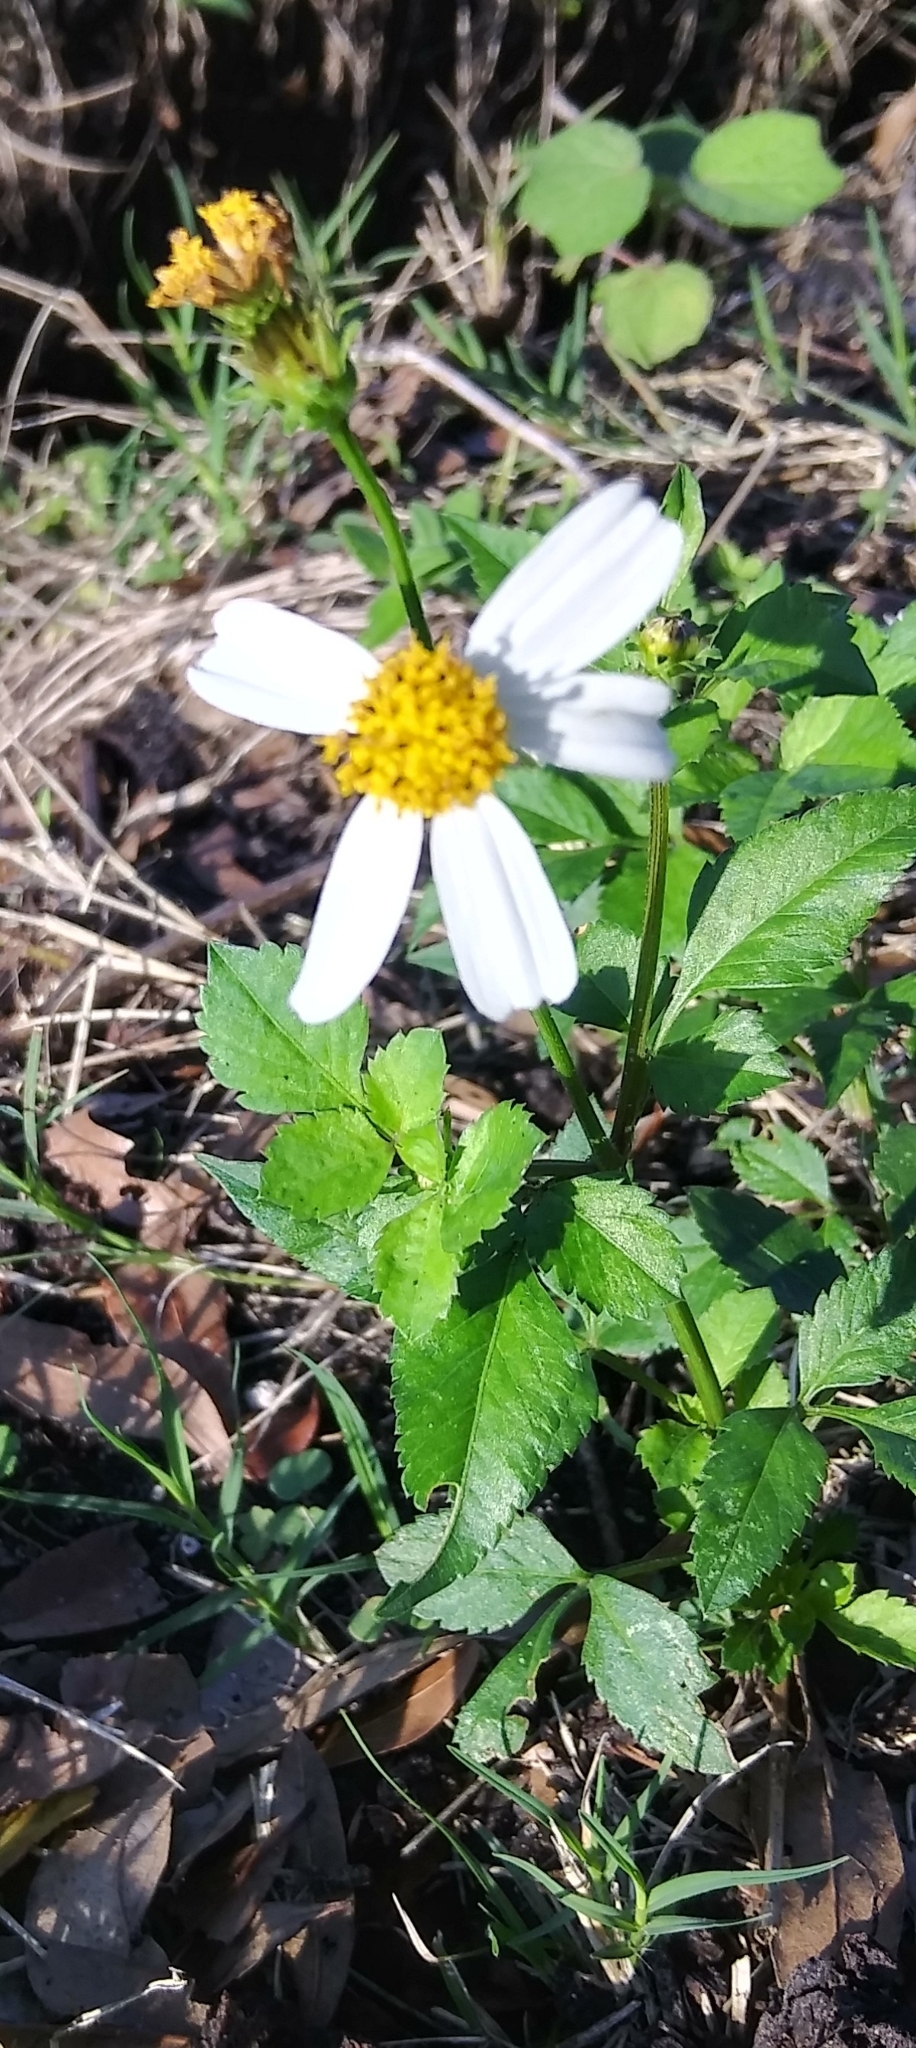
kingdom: Plantae
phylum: Tracheophyta
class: Magnoliopsida
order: Asterales
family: Asteraceae
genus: Bidens
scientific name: Bidens alba
